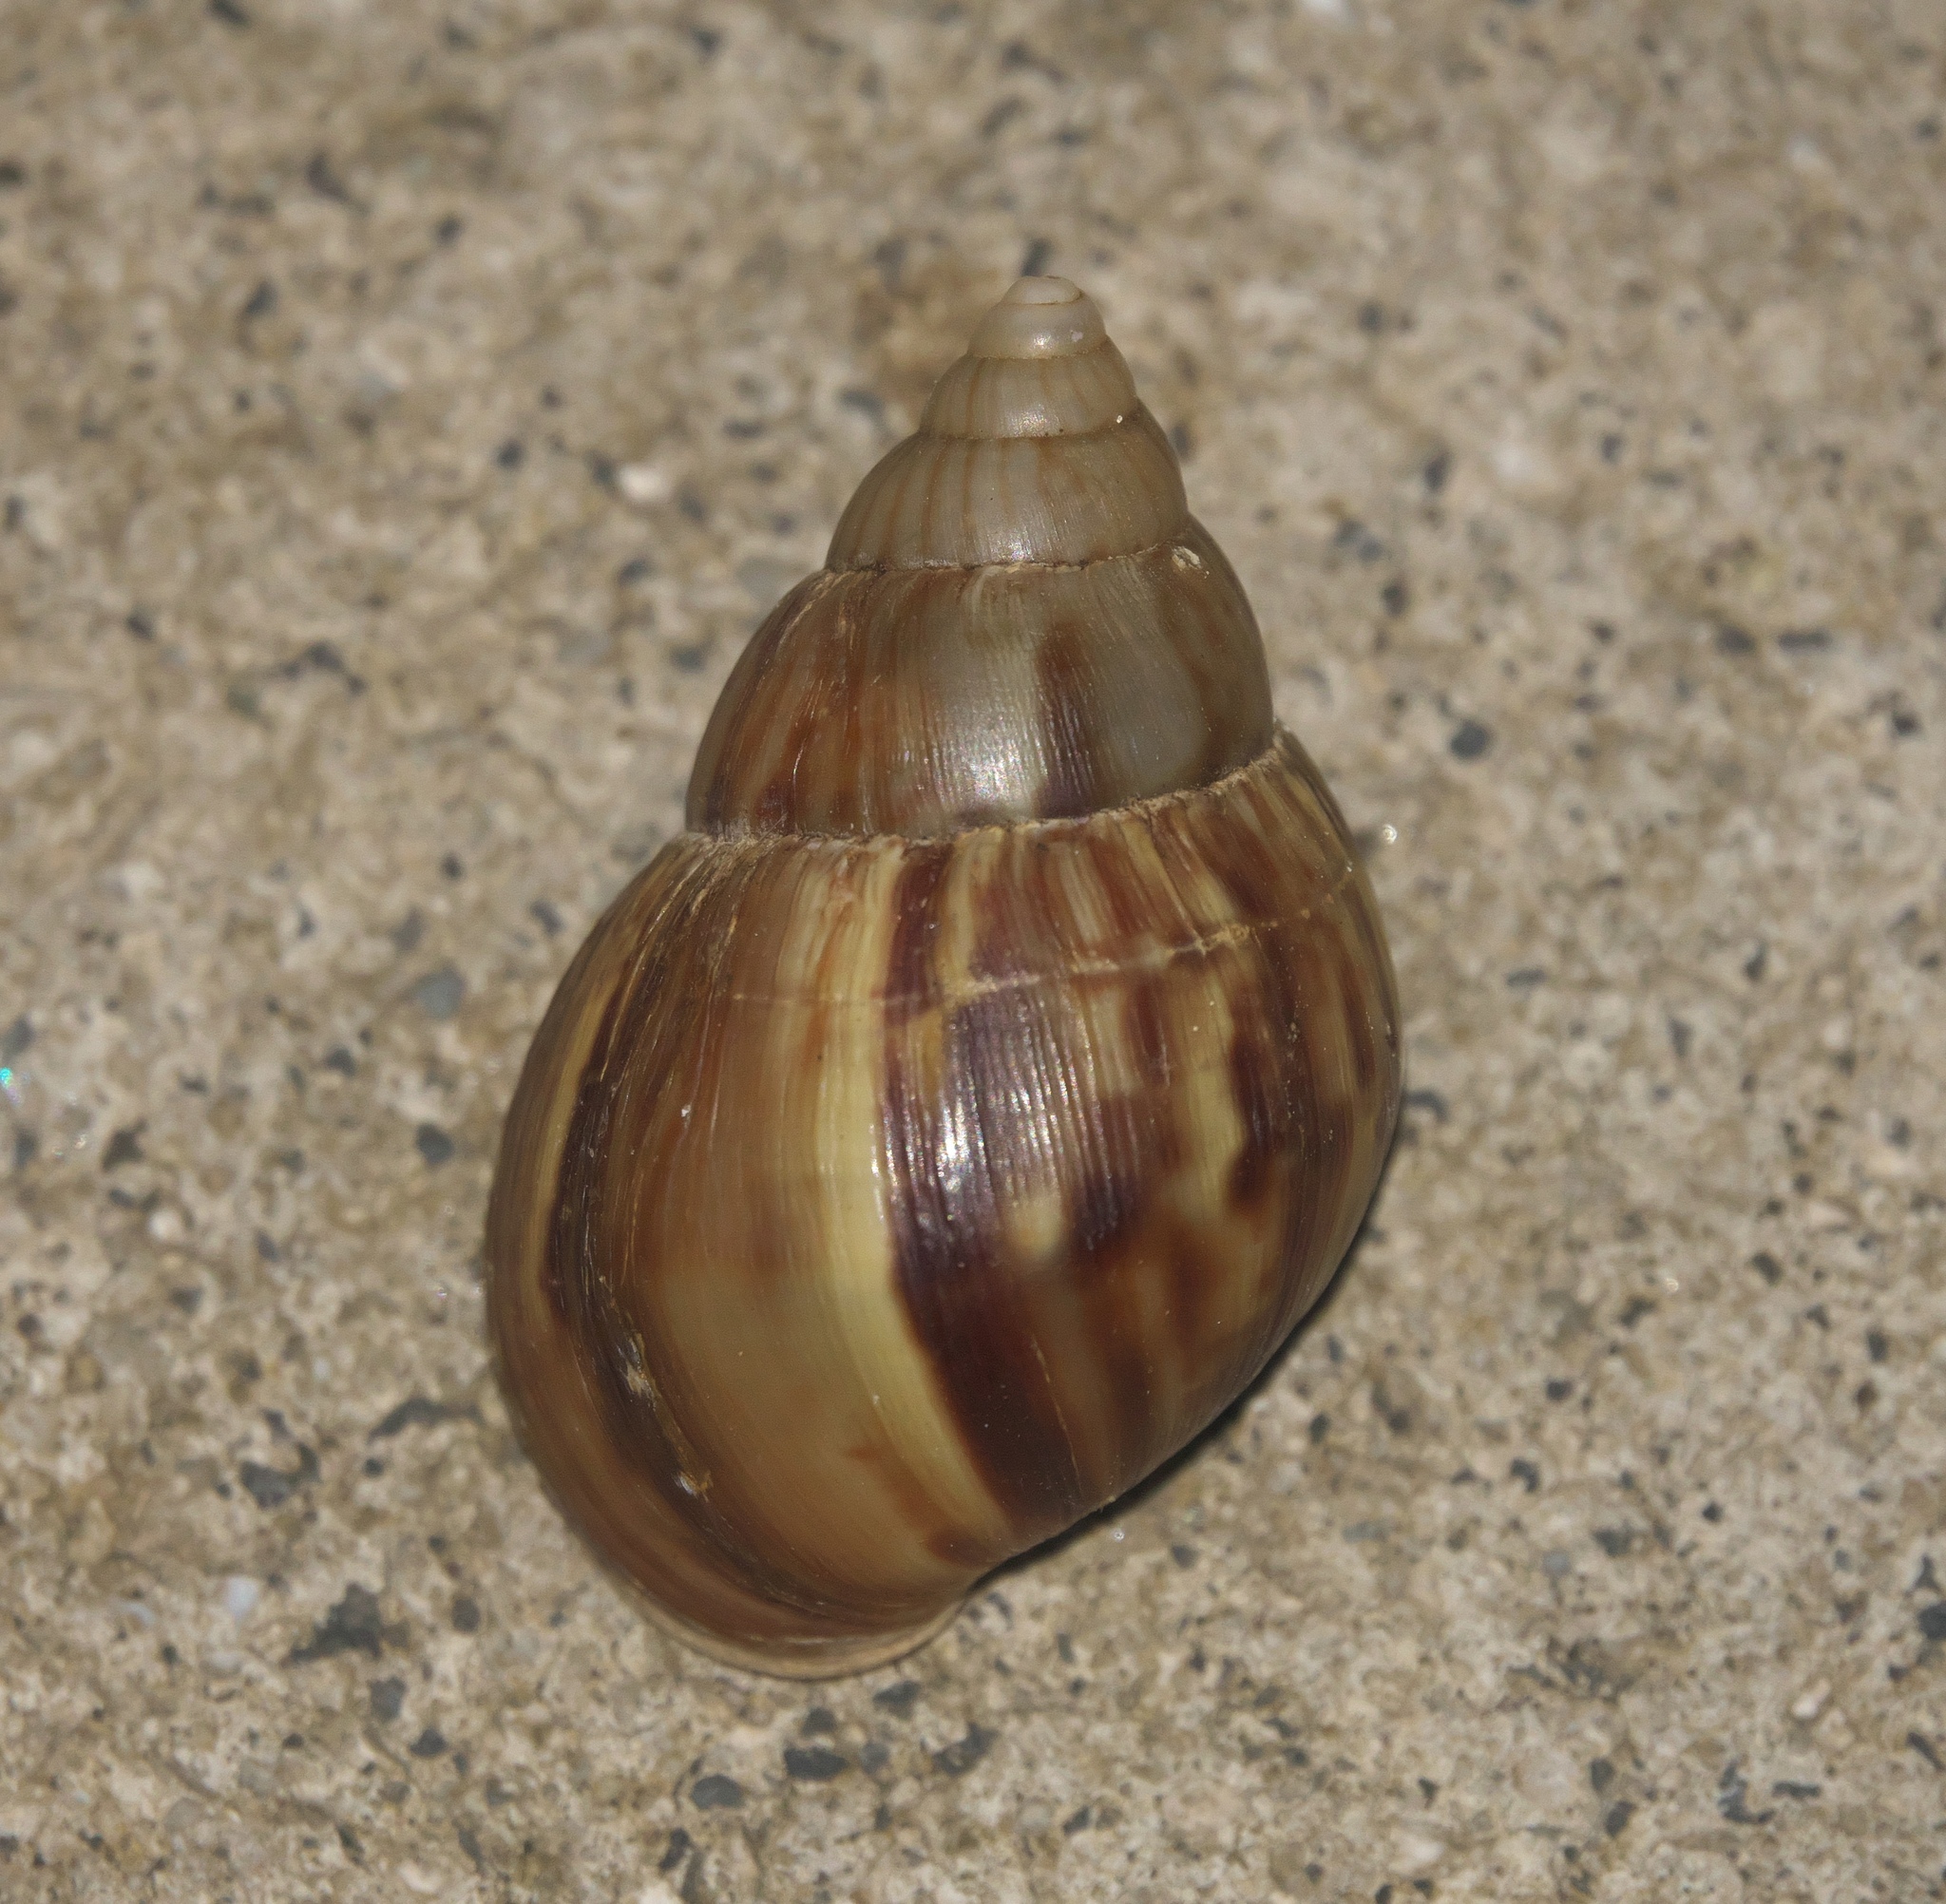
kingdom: Animalia
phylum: Mollusca
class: Gastropoda
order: Stylommatophora
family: Achatinidae
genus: Lissachatina
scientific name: Lissachatina fulica
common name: Giant african snail
